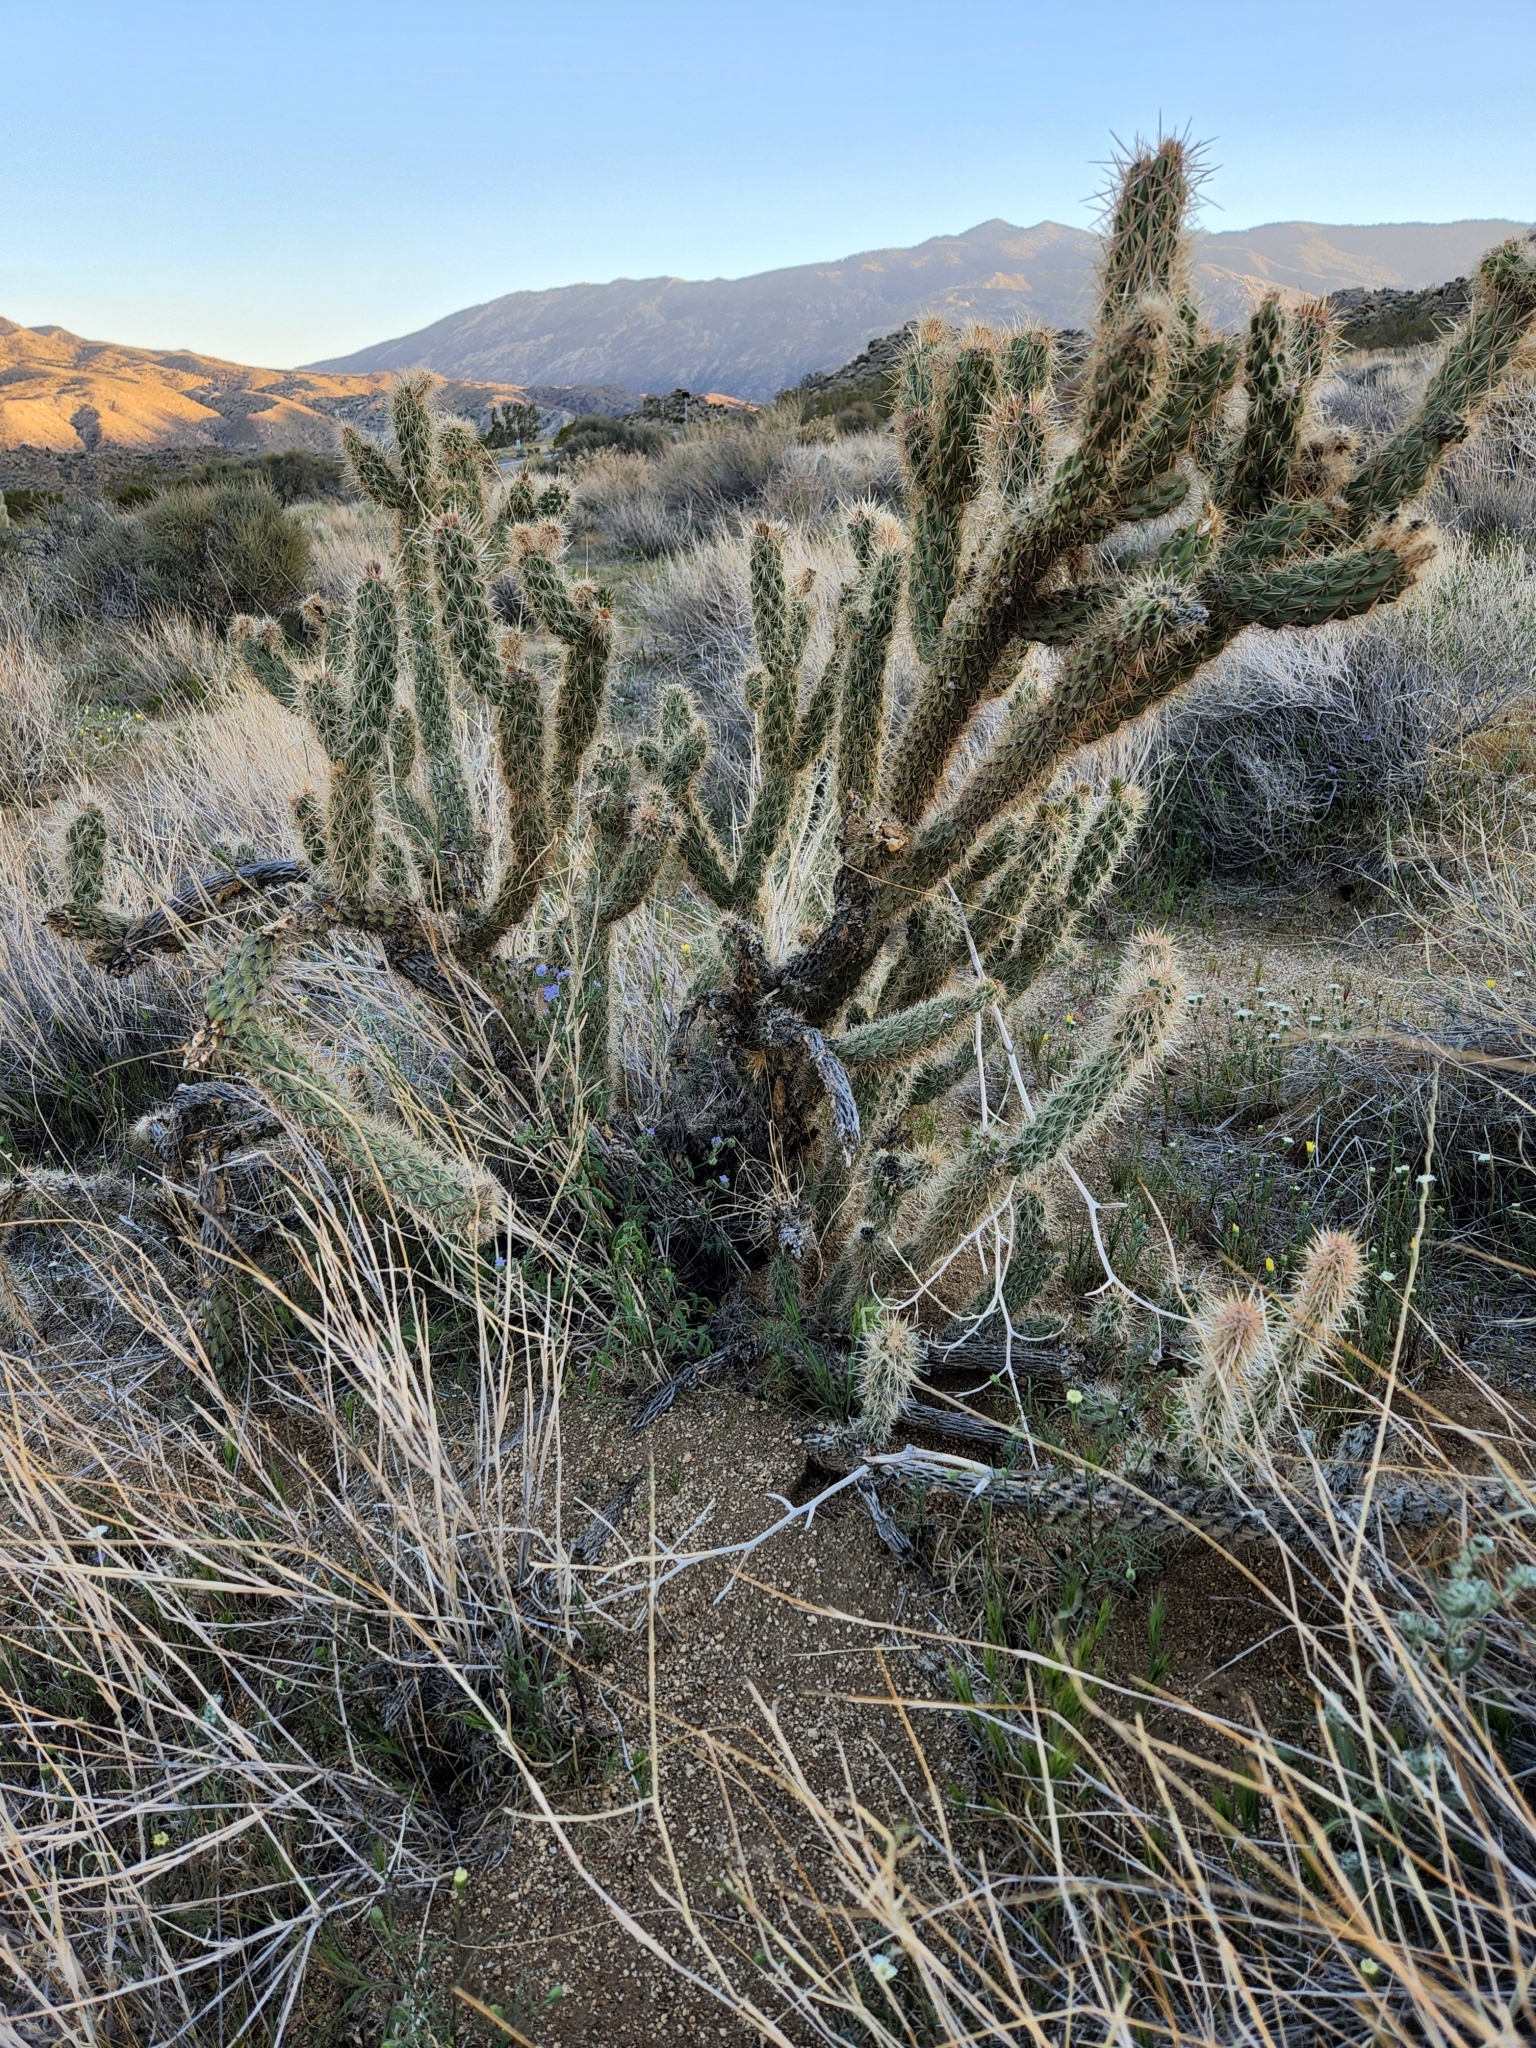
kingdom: Plantae
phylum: Tracheophyta
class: Magnoliopsida
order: Caryophyllales
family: Cactaceae
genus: Cylindropuntia
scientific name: Cylindropuntia ganderi
